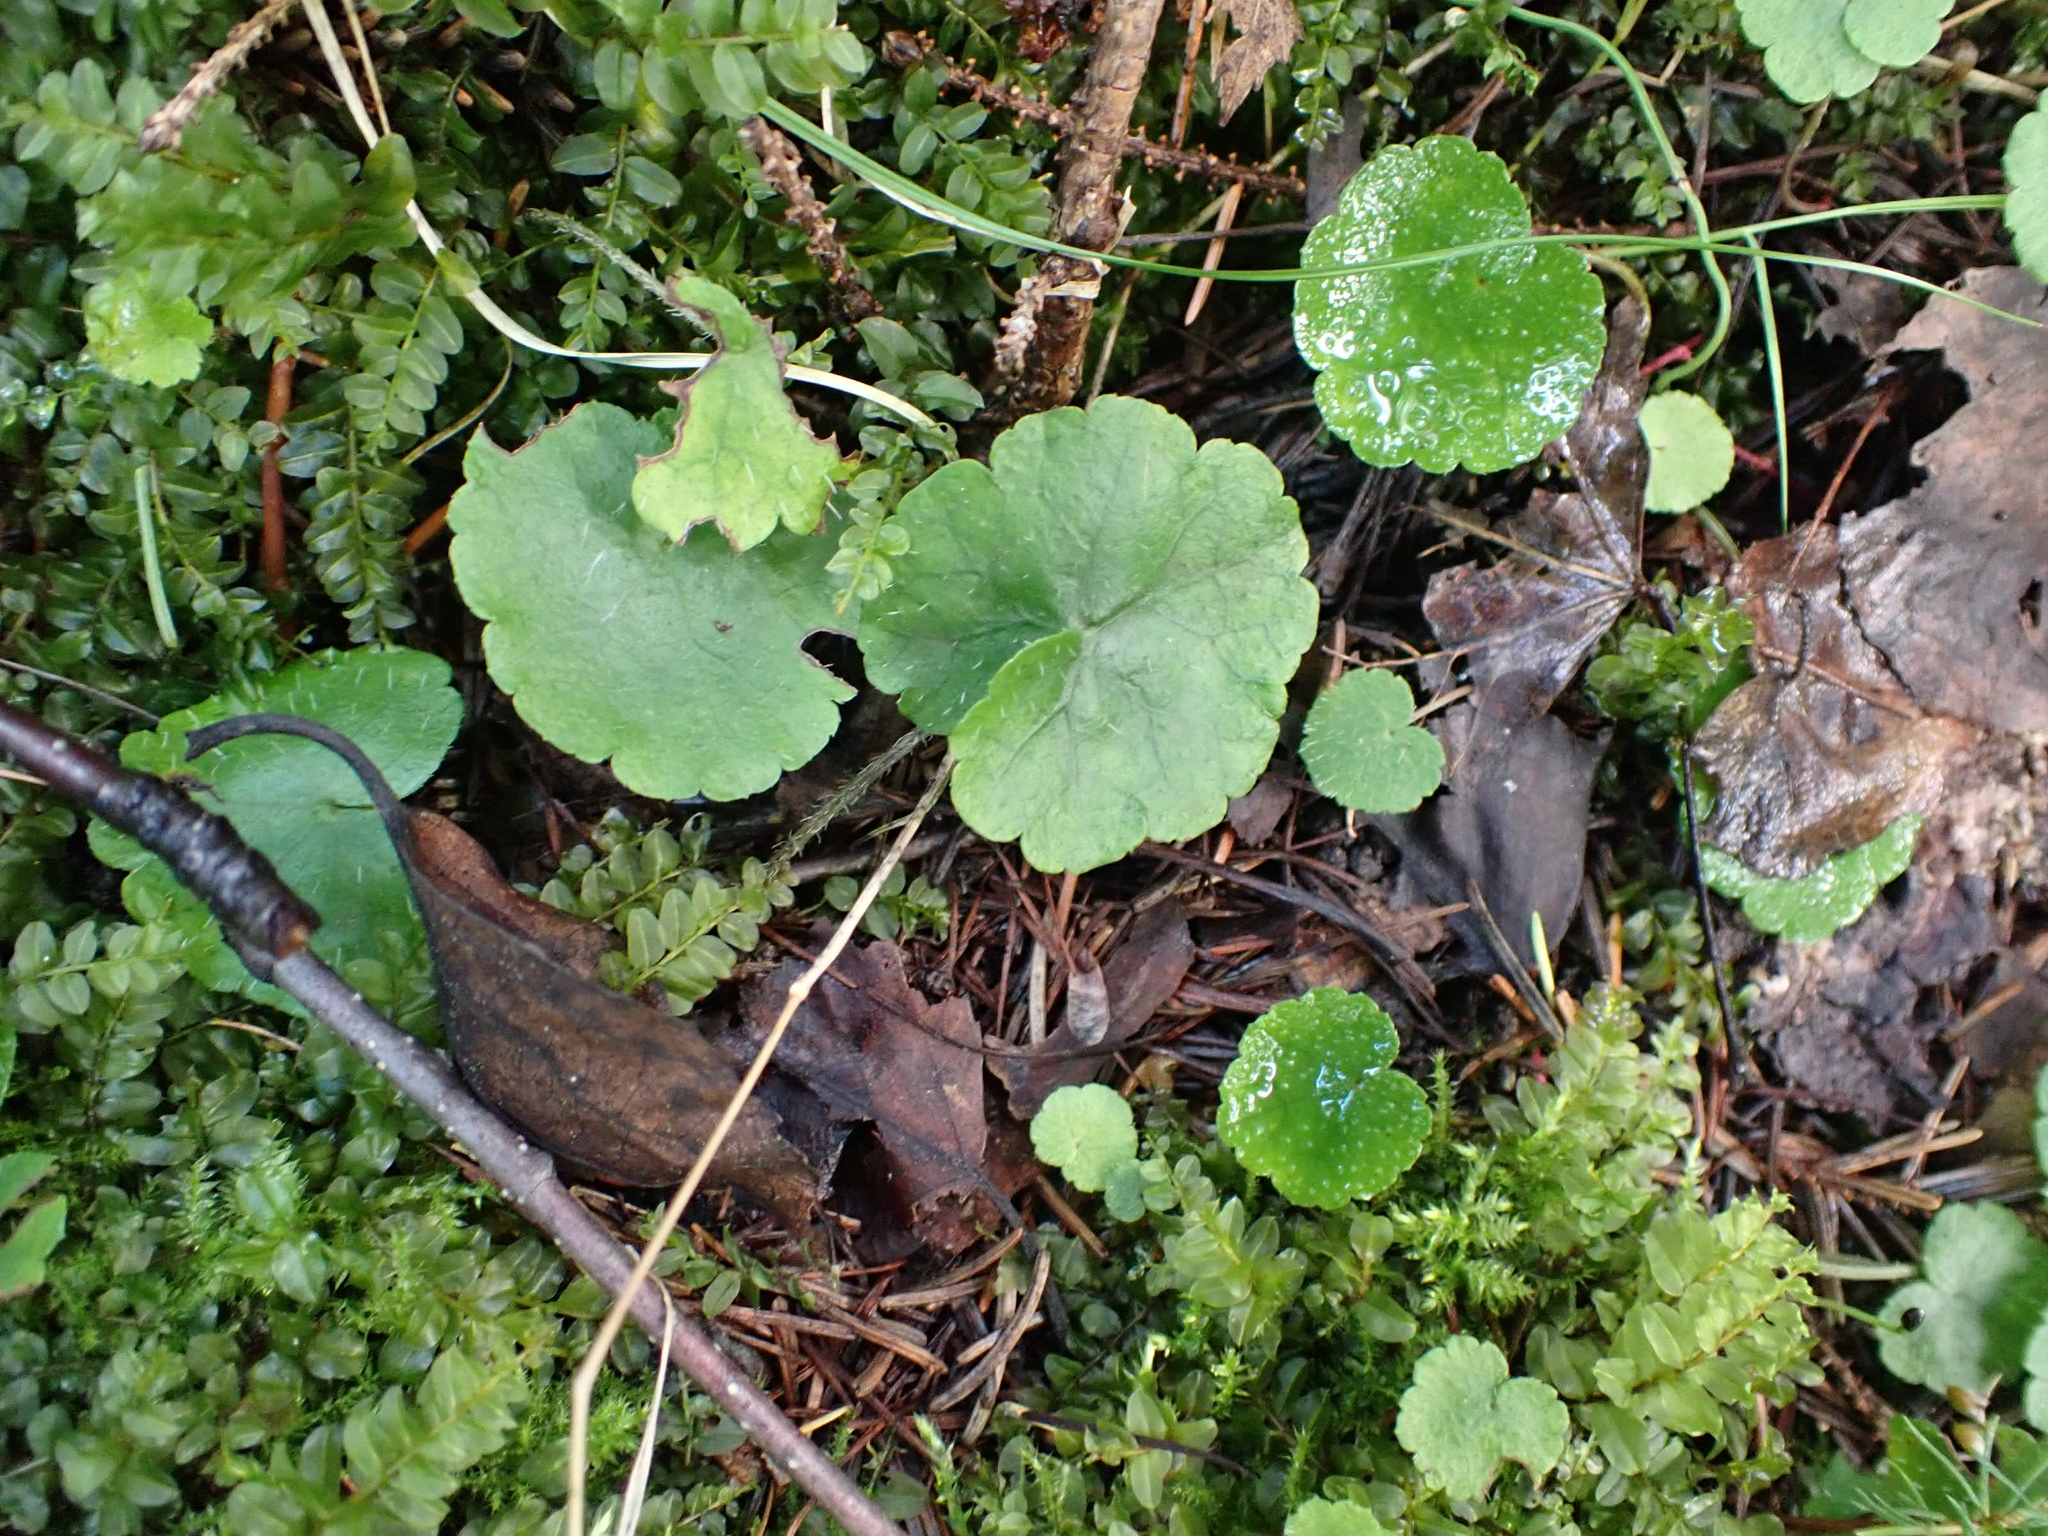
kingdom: Plantae
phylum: Tracheophyta
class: Magnoliopsida
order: Saxifragales
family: Saxifragaceae
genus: Mitella
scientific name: Mitella nuda
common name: Bare-stemmed bishop's-cap
